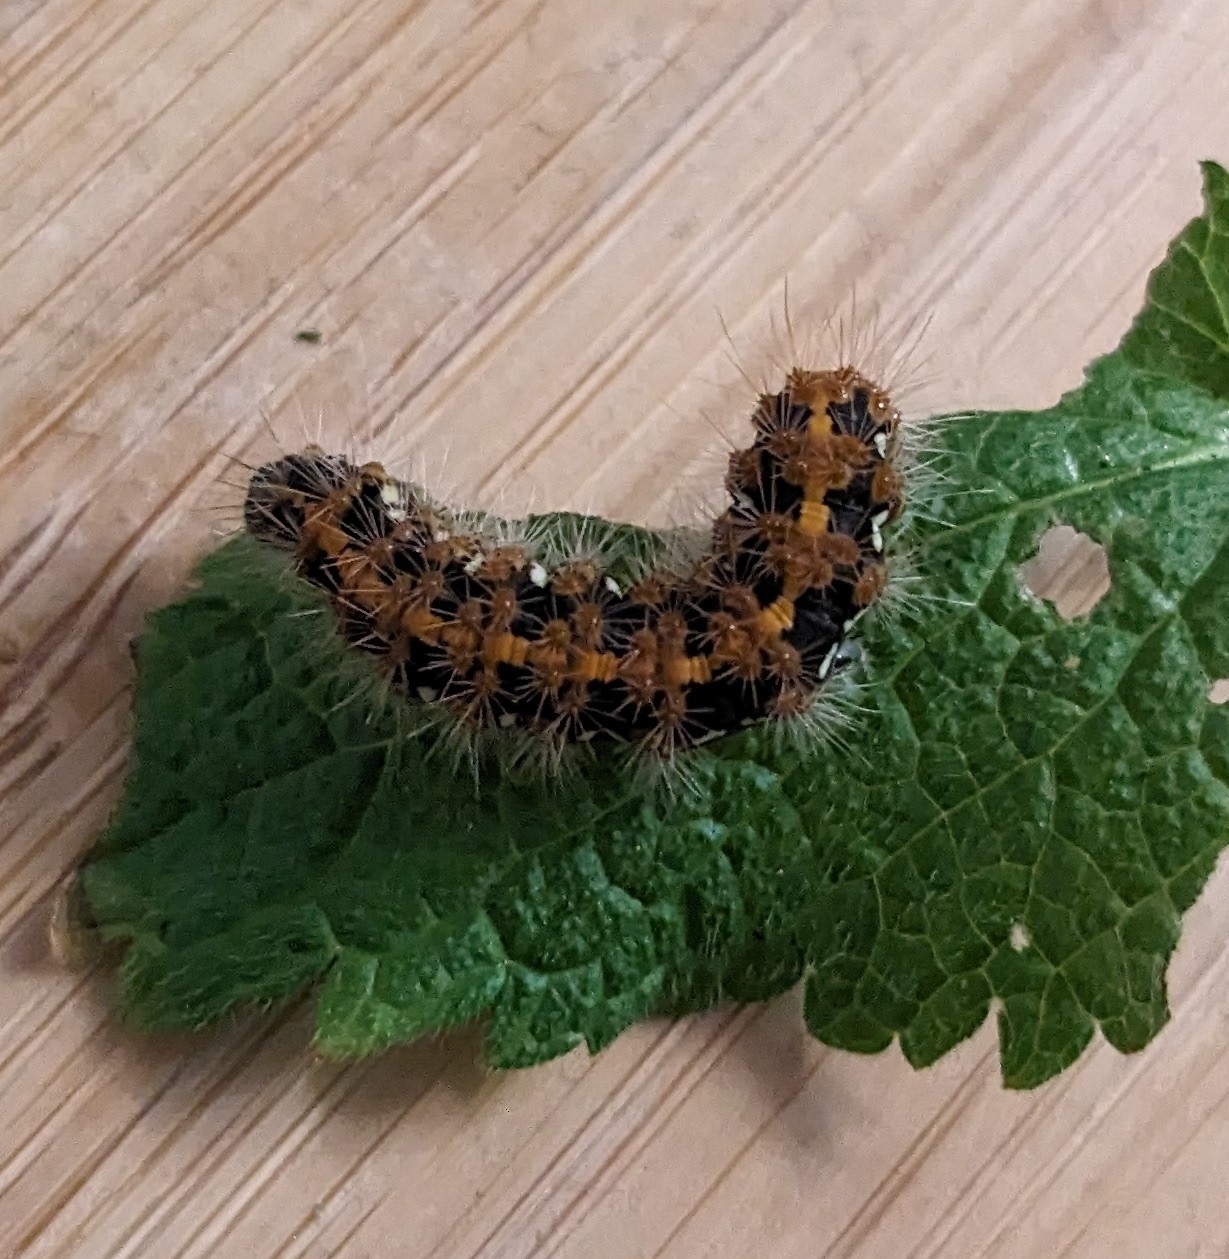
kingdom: Animalia
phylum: Arthropoda
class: Insecta
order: Lepidoptera
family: Erebidae
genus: Euplagia
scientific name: Euplagia quadripunctaria
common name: Jersey tiger
